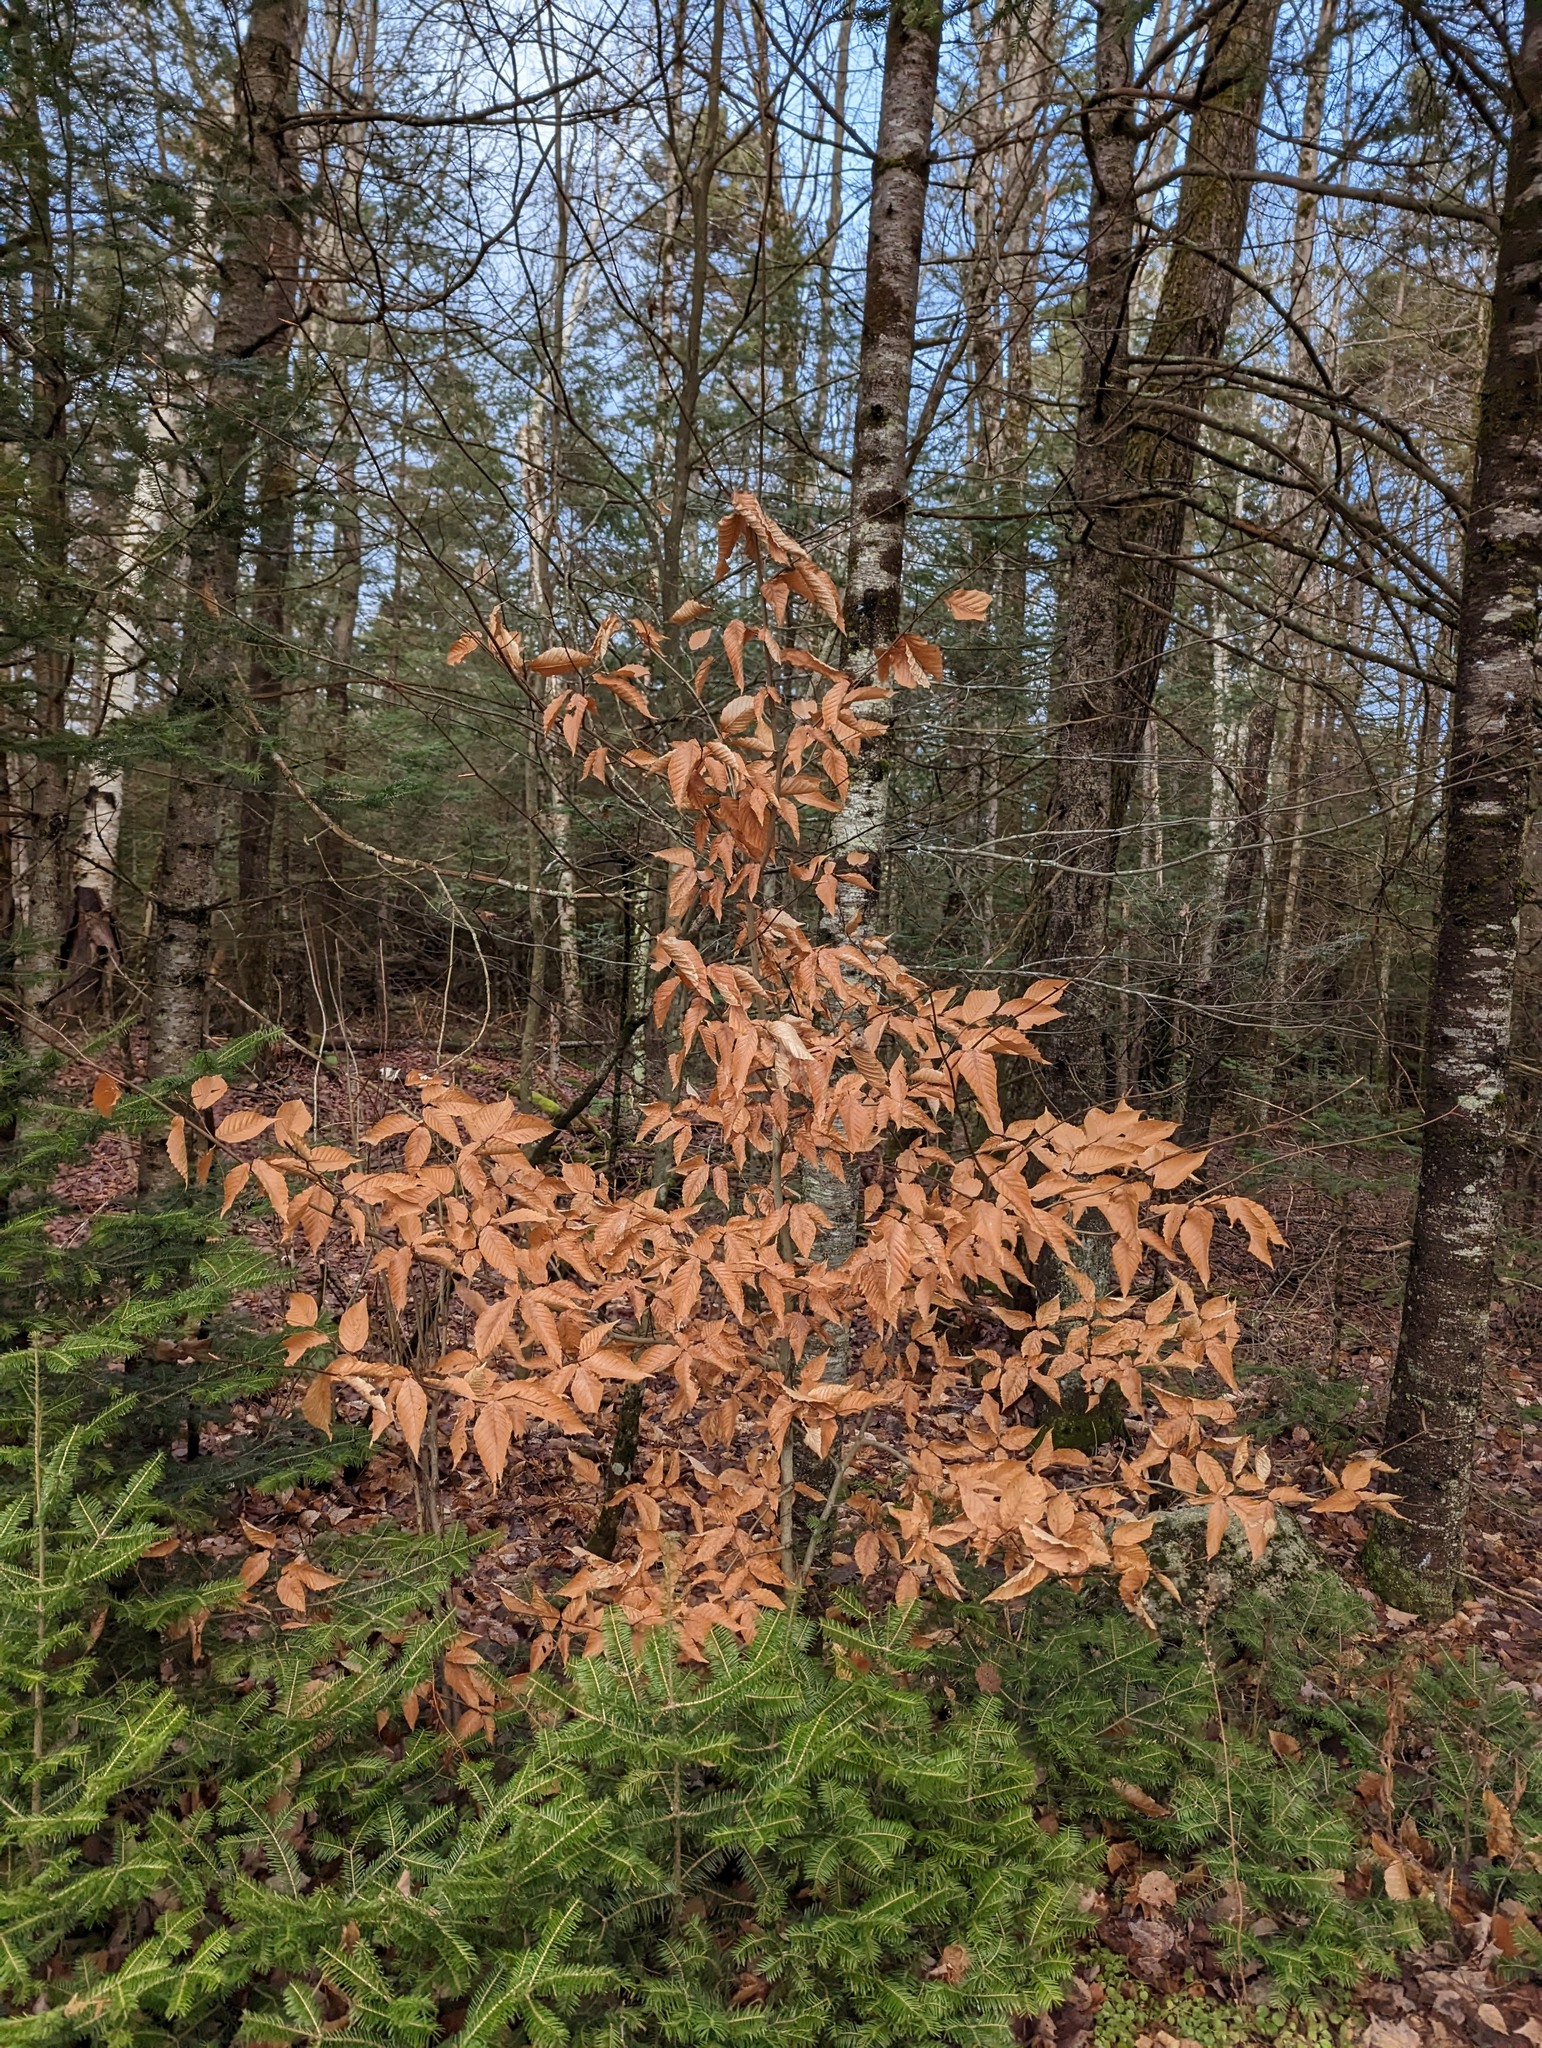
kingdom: Plantae
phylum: Tracheophyta
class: Magnoliopsida
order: Fagales
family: Fagaceae
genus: Fagus
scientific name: Fagus grandifolia
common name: American beech
